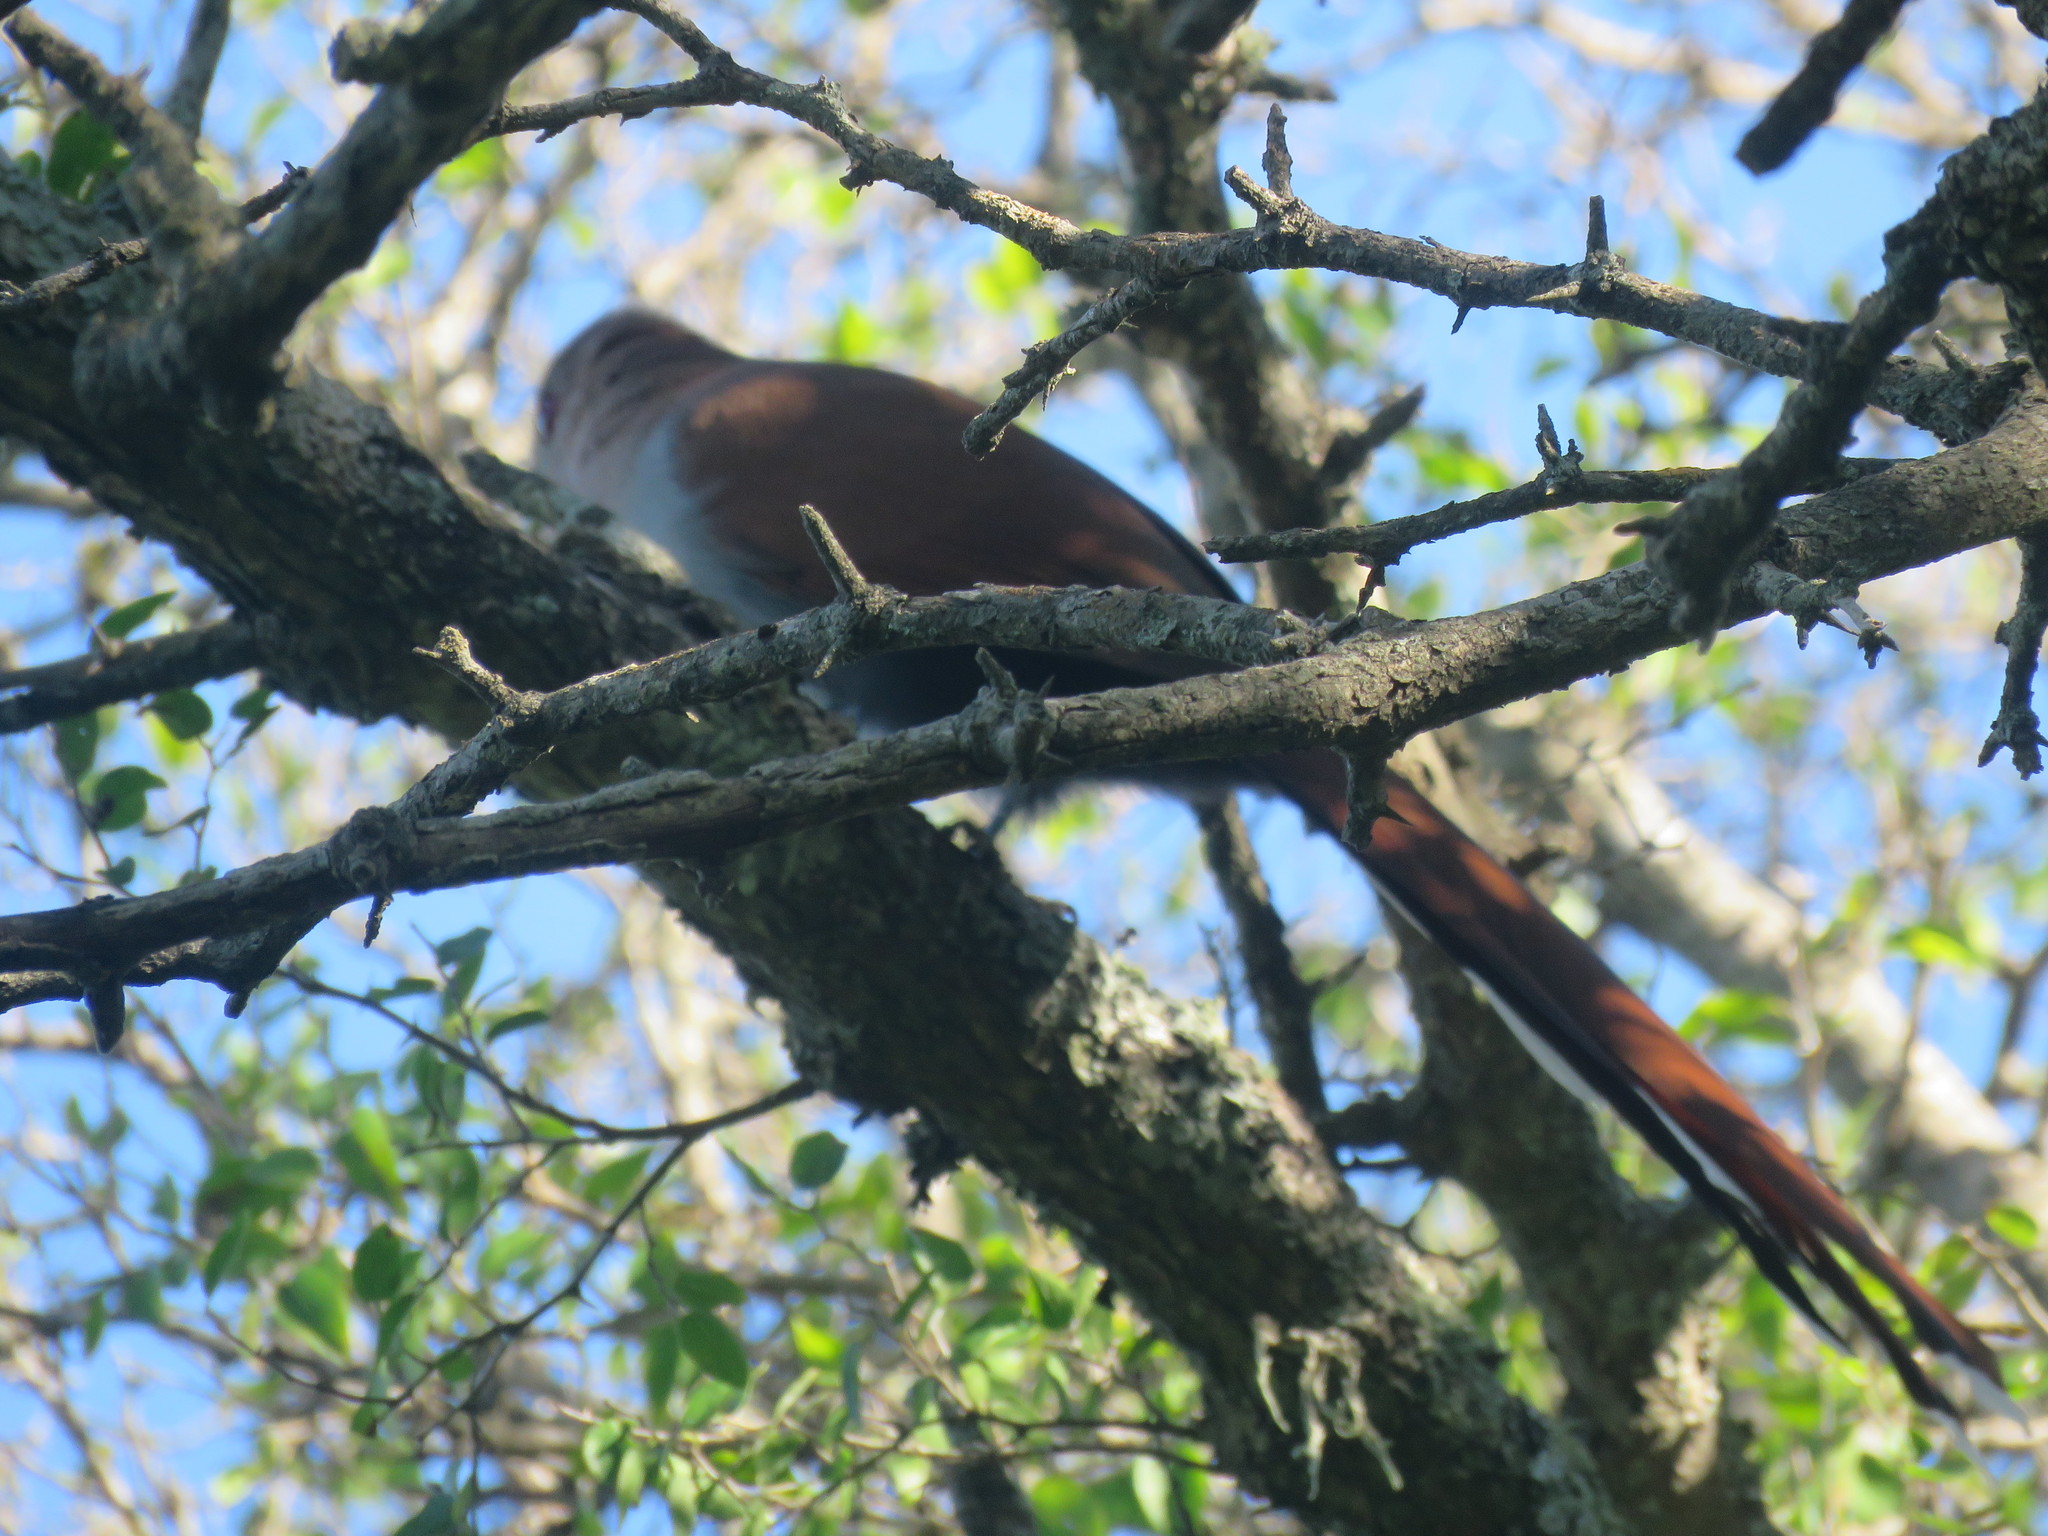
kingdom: Animalia
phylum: Chordata
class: Aves
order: Cuculiformes
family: Cuculidae
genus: Piaya
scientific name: Piaya cayana
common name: Squirrel cuckoo
